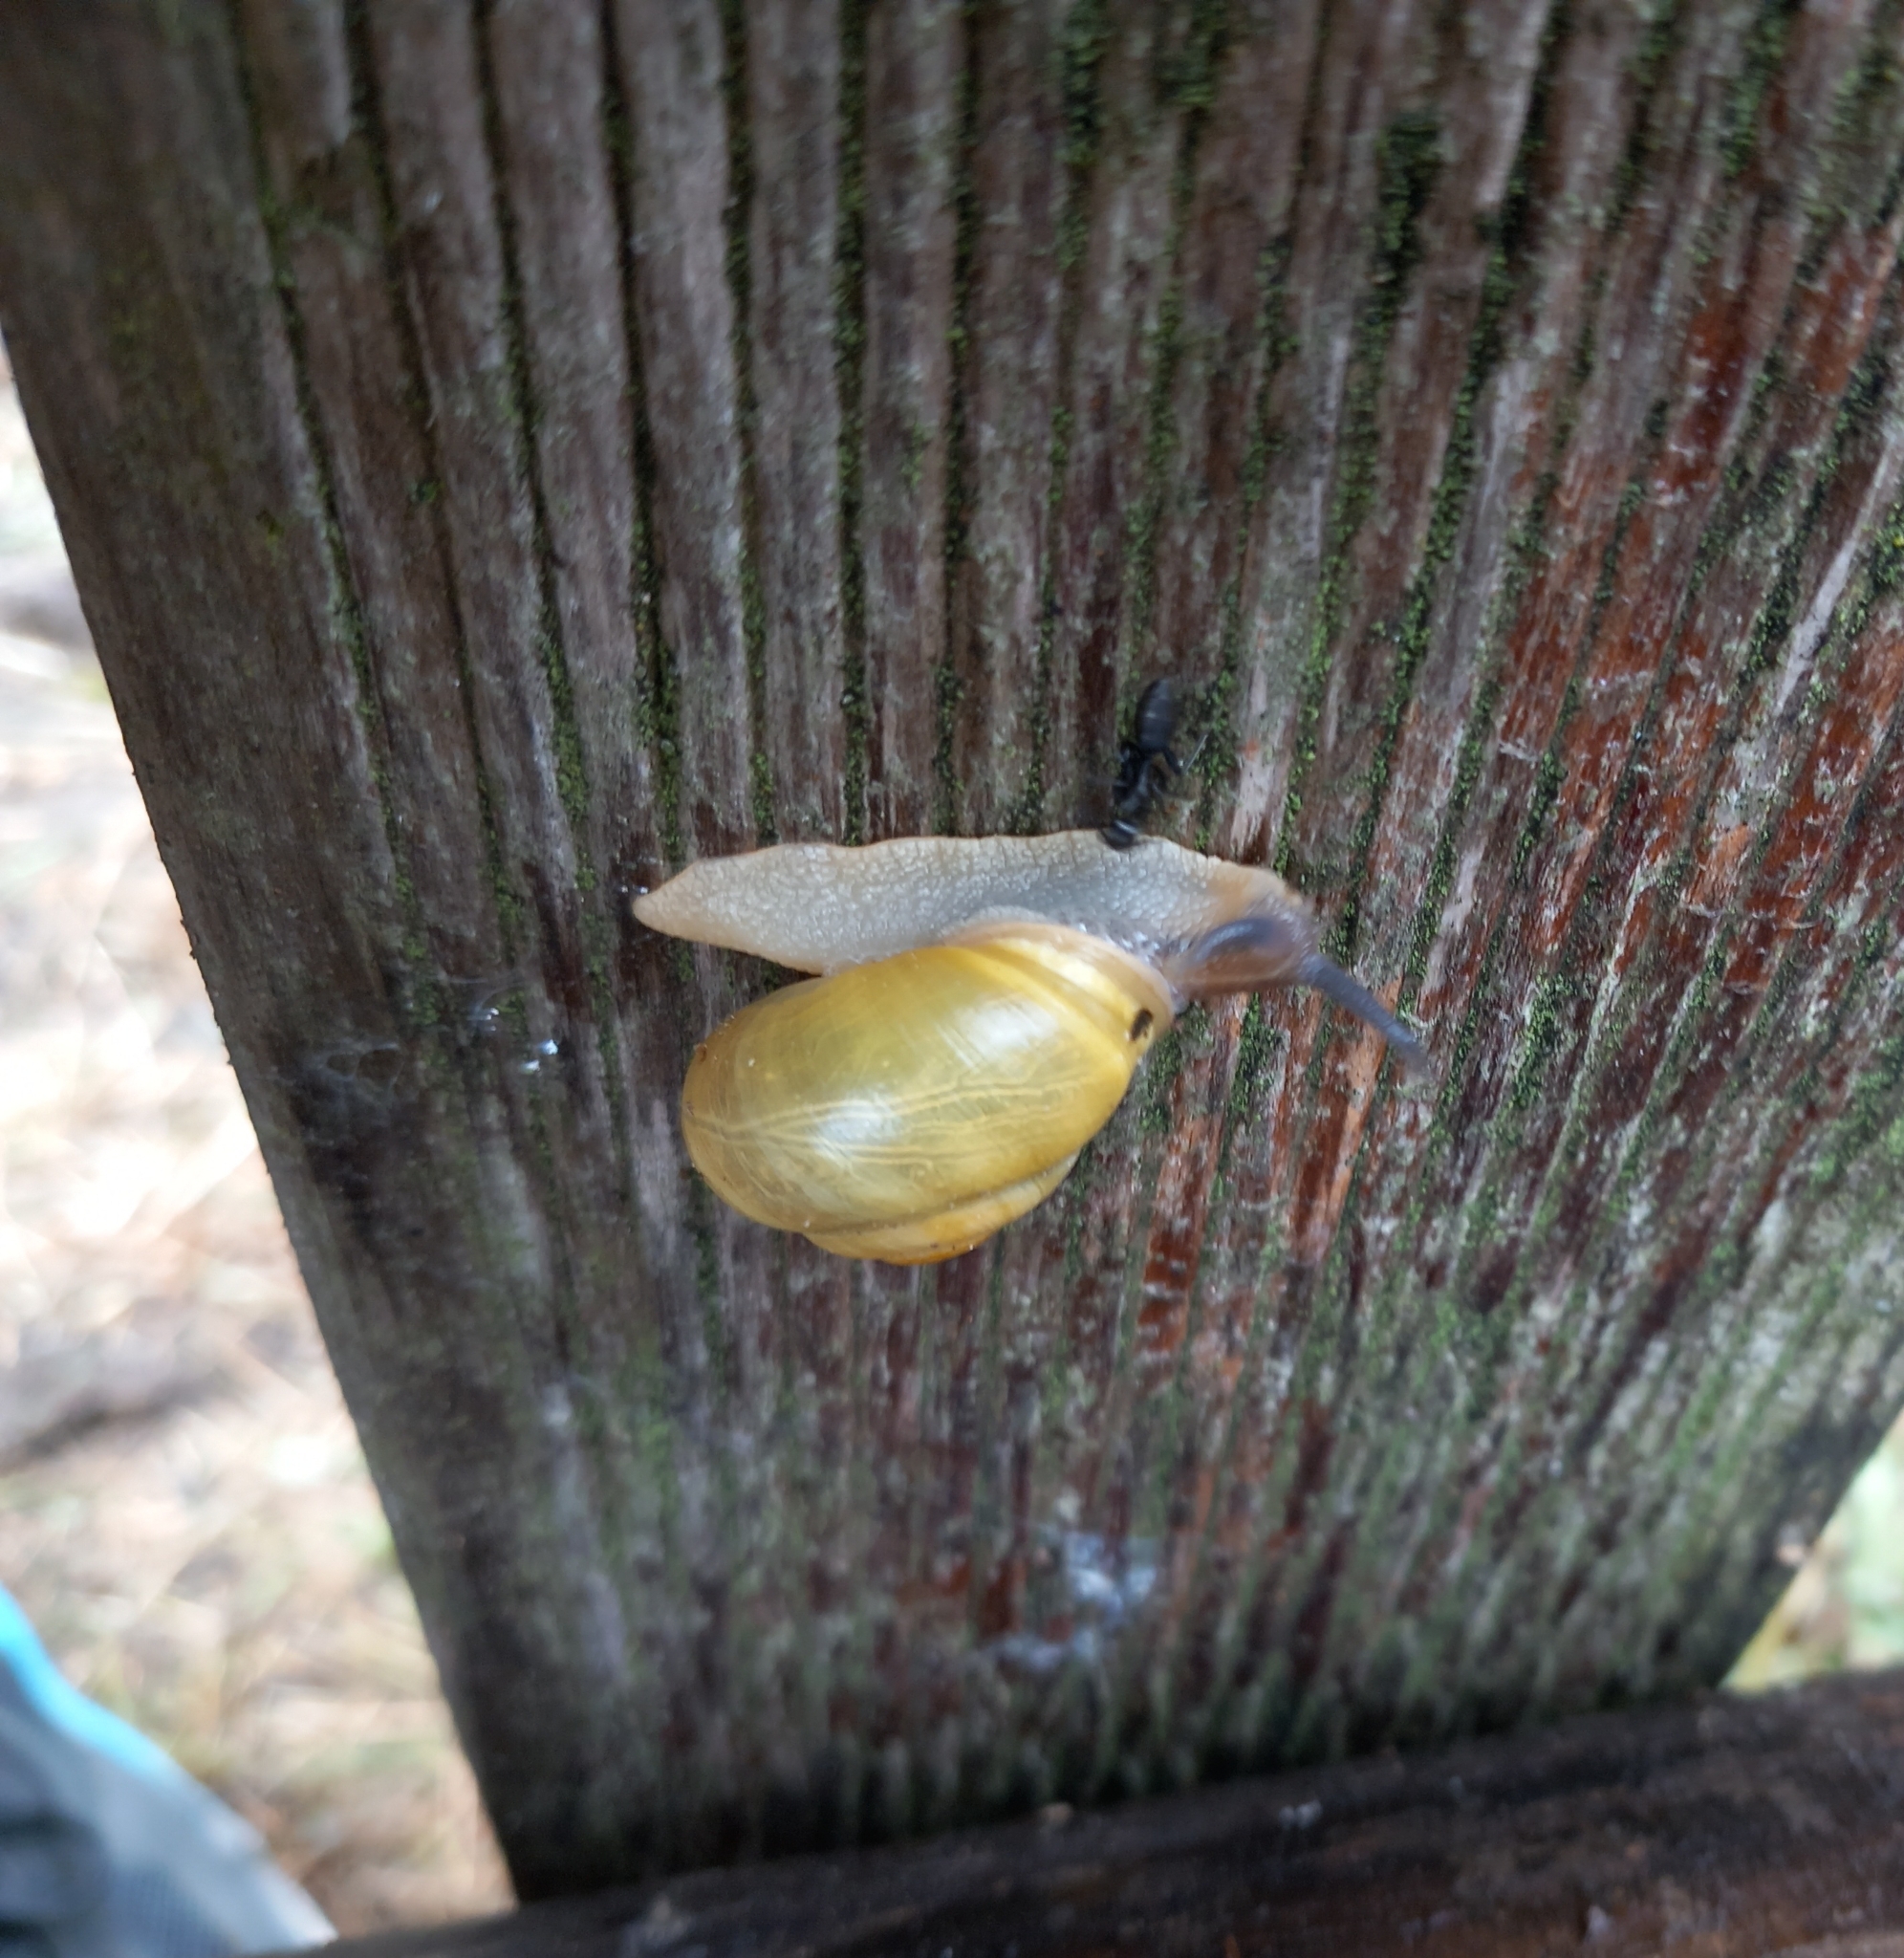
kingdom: Animalia
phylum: Mollusca
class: Gastropoda
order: Stylommatophora
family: Helicidae
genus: Cepaea
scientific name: Cepaea hortensis
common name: White-lip gardensnail
